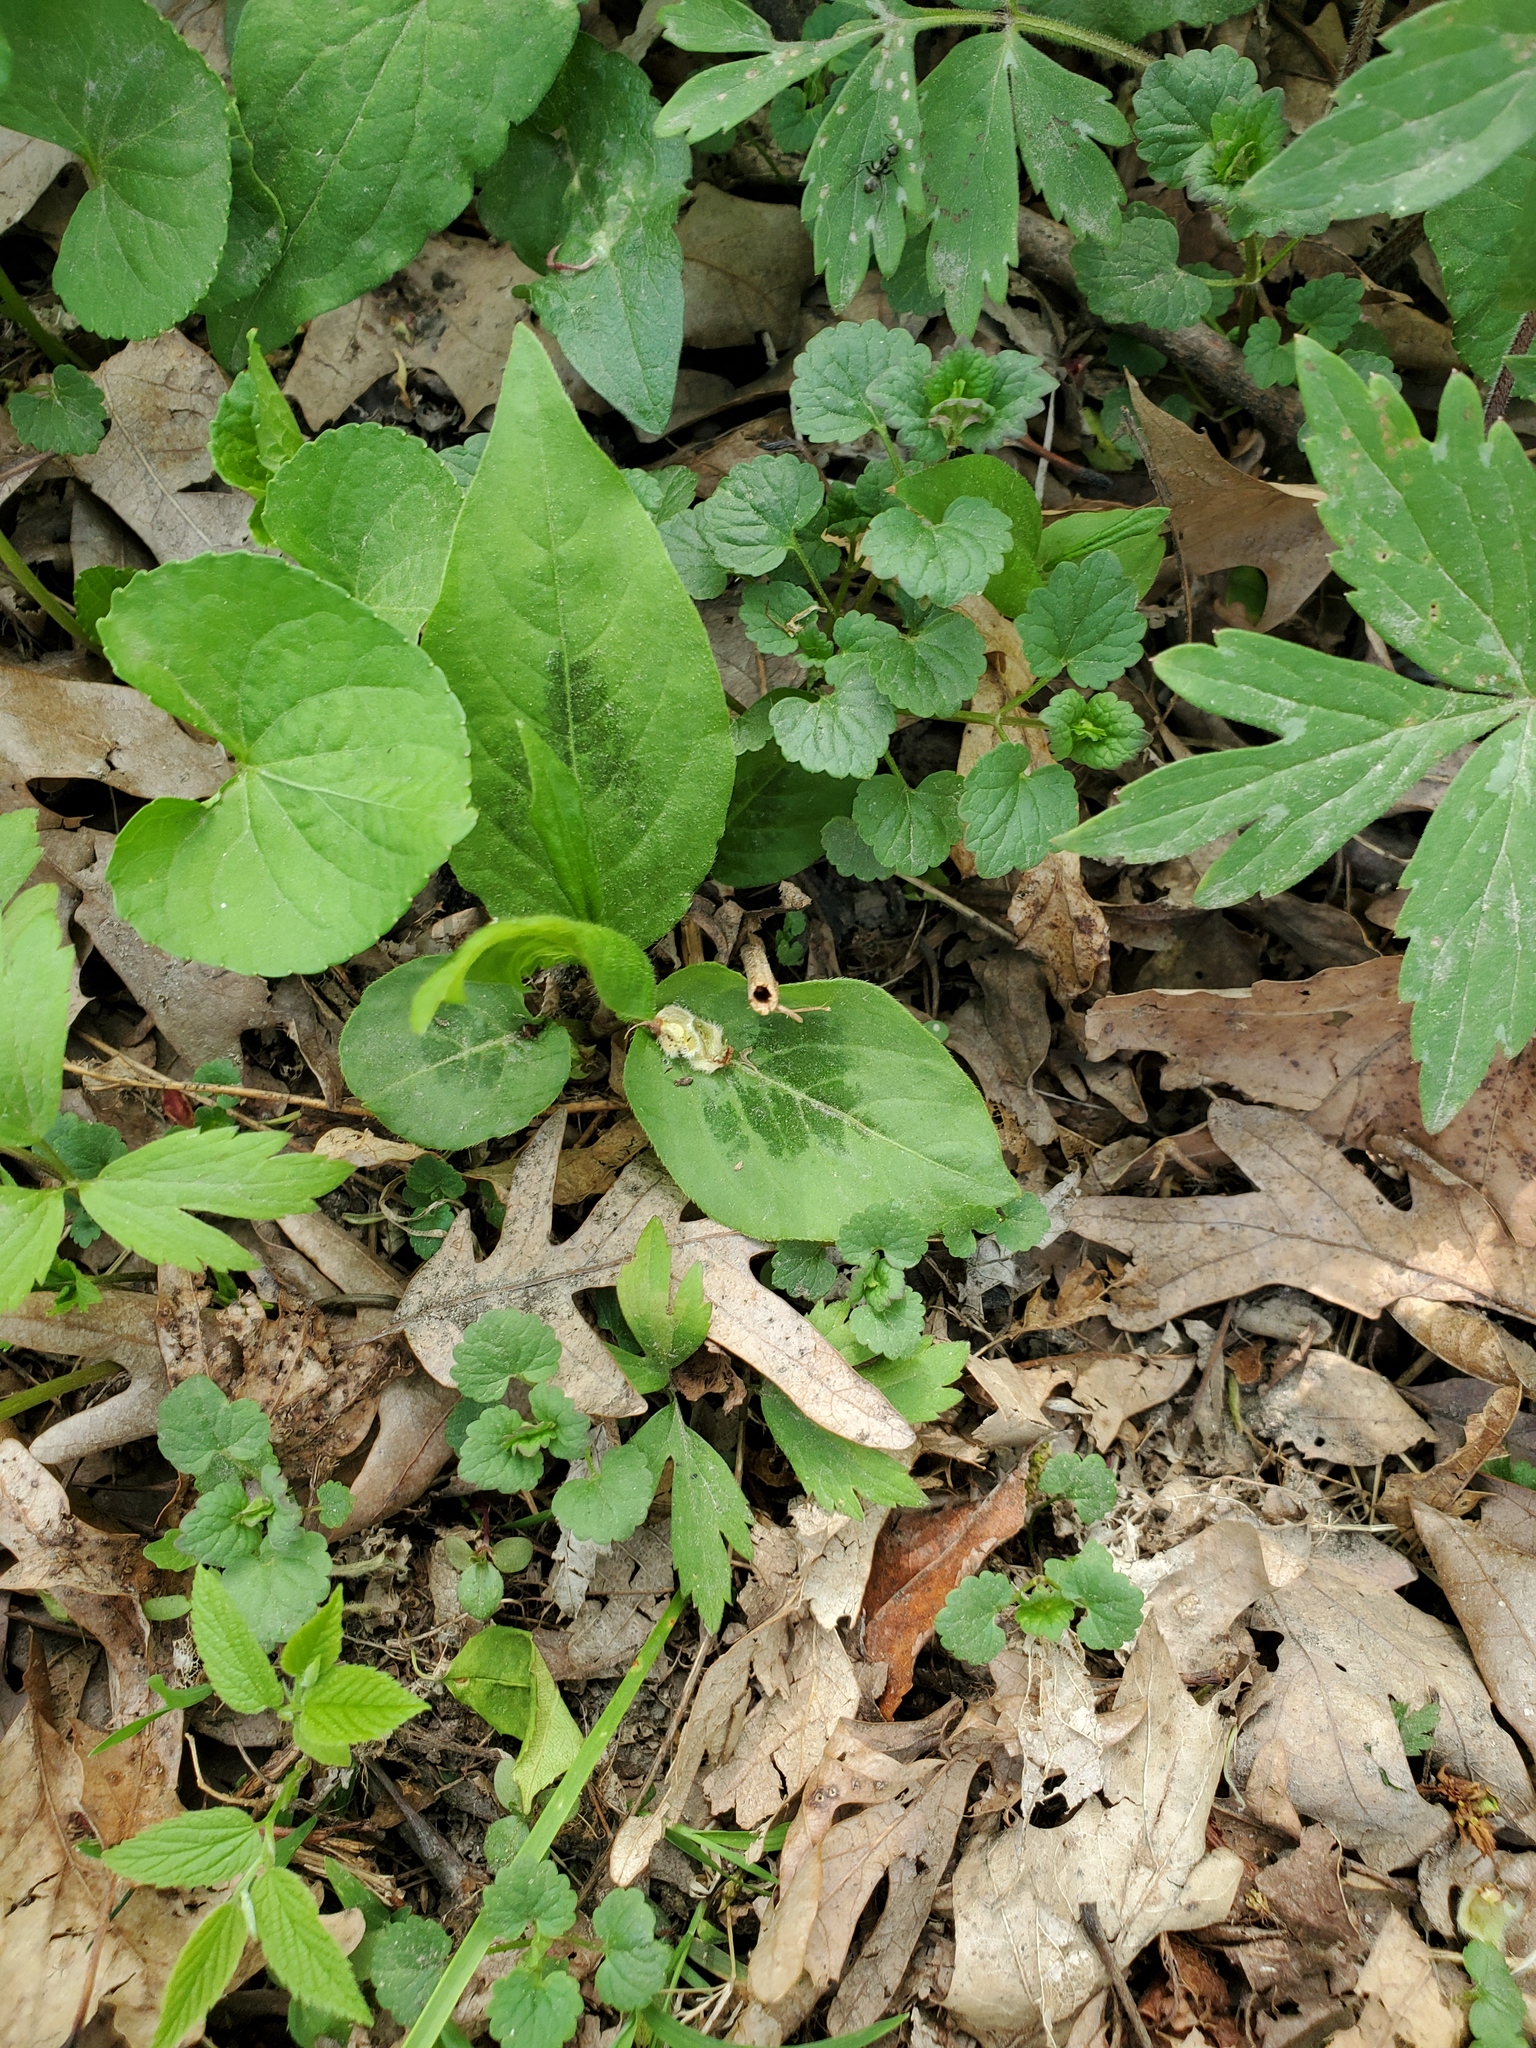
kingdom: Plantae
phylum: Tracheophyta
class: Magnoliopsida
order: Caryophyllales
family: Polygonaceae
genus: Persicaria
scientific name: Persicaria virginiana
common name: Jumpseed
